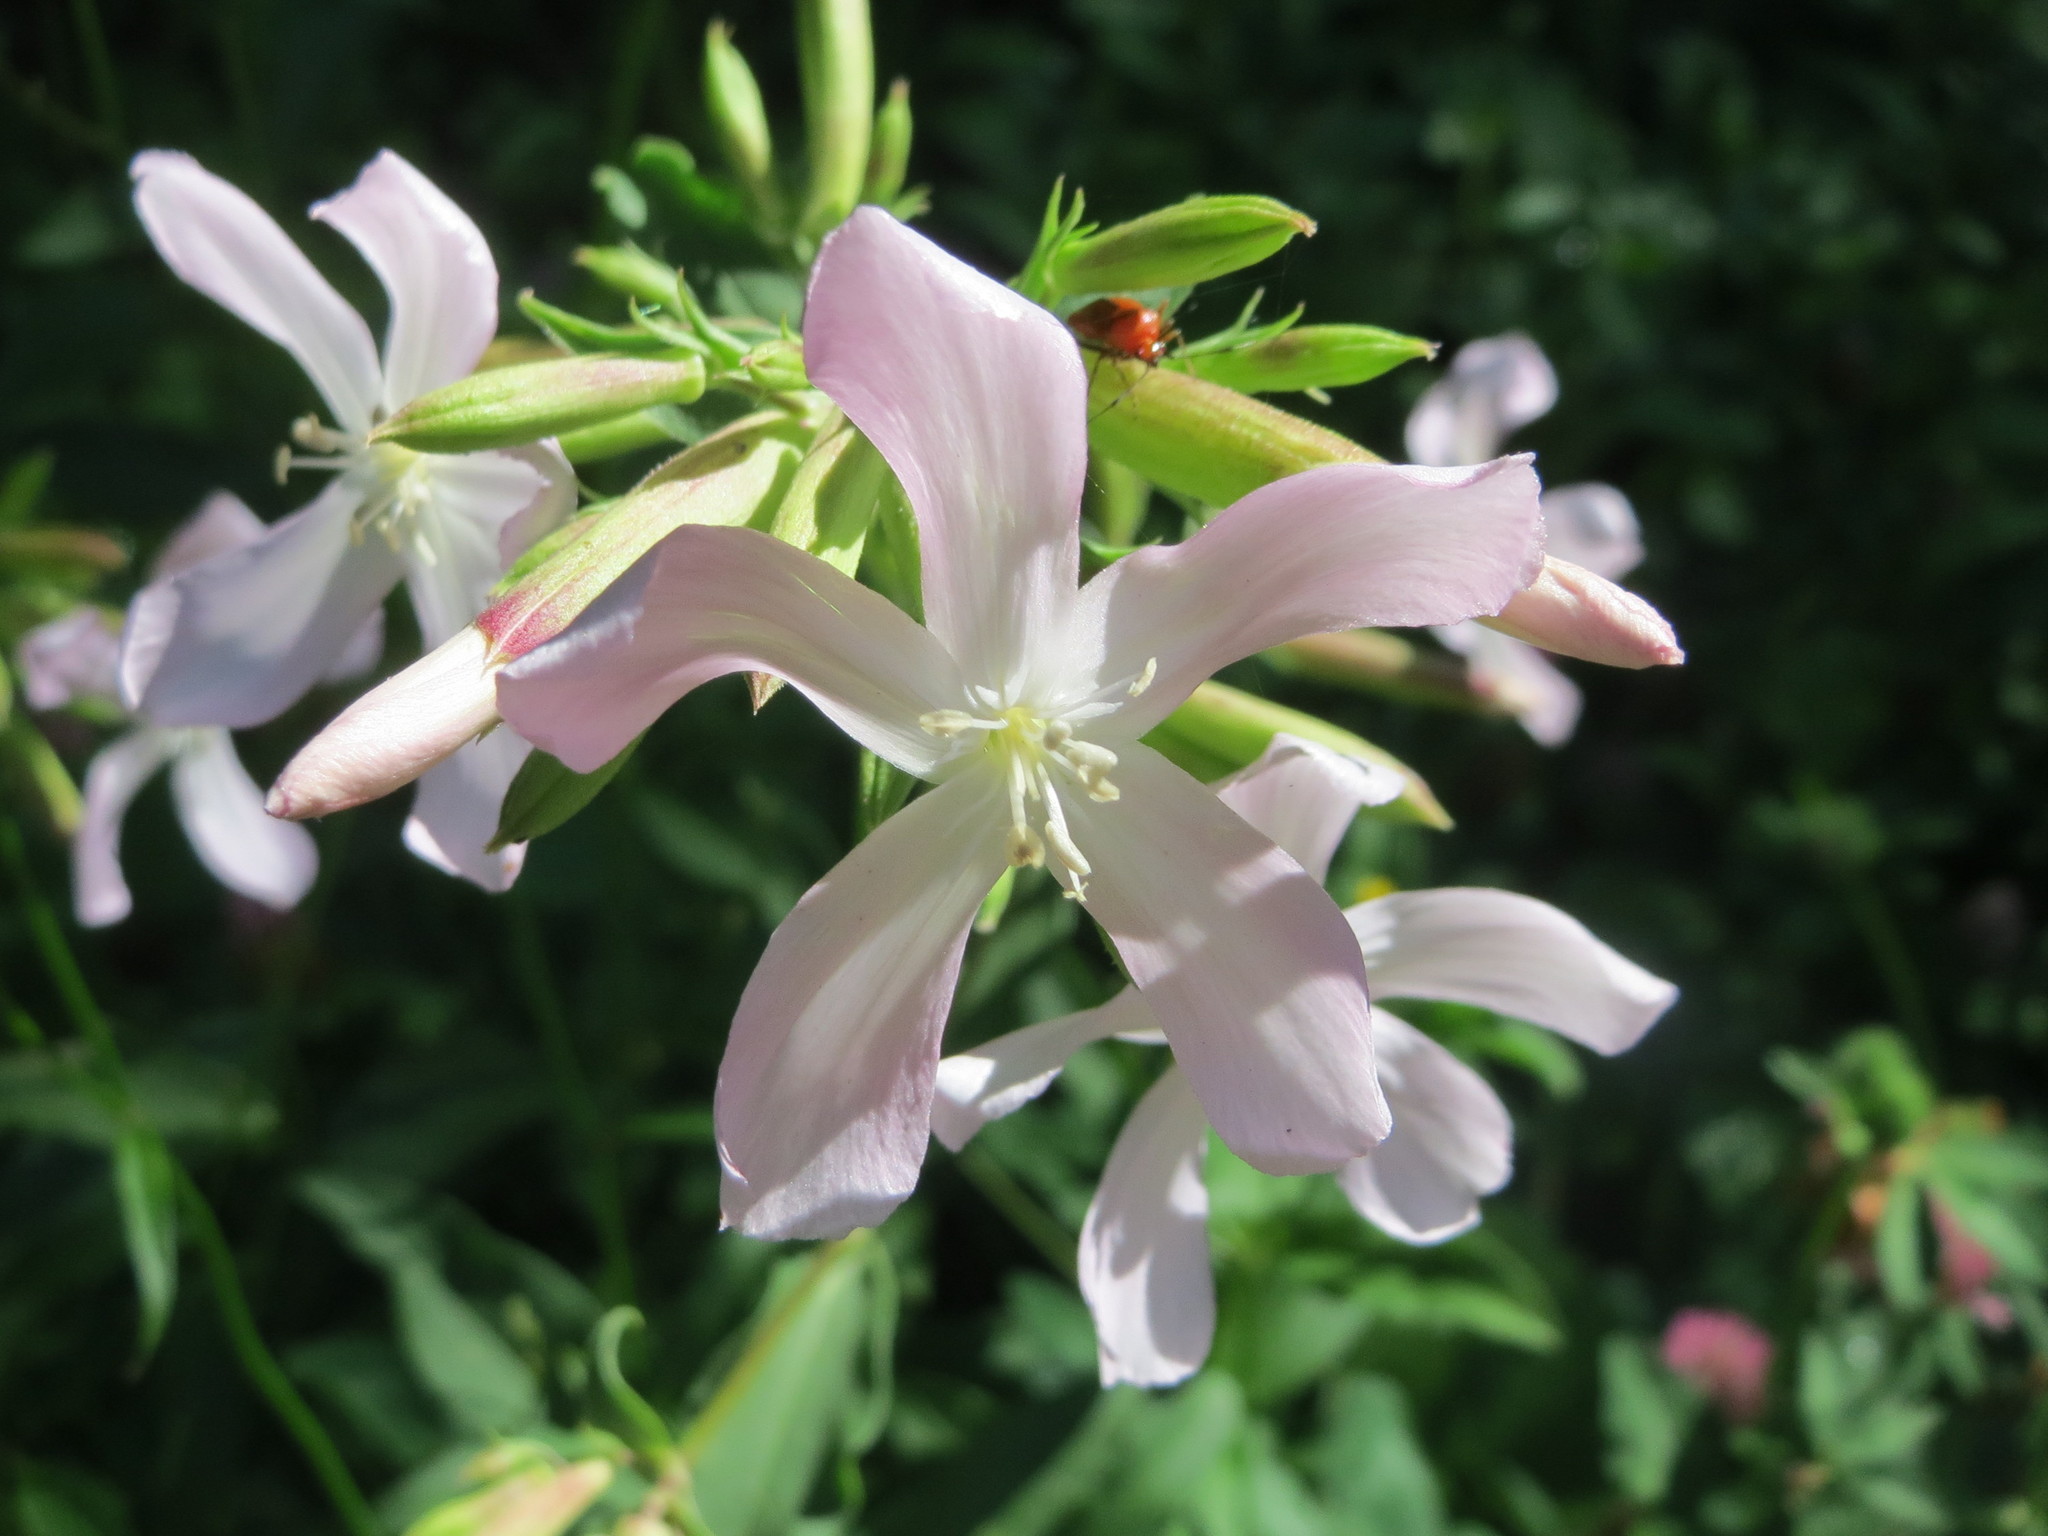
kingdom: Plantae
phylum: Tracheophyta
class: Magnoliopsida
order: Caryophyllales
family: Caryophyllaceae
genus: Saponaria
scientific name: Saponaria officinalis
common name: Soapwort
